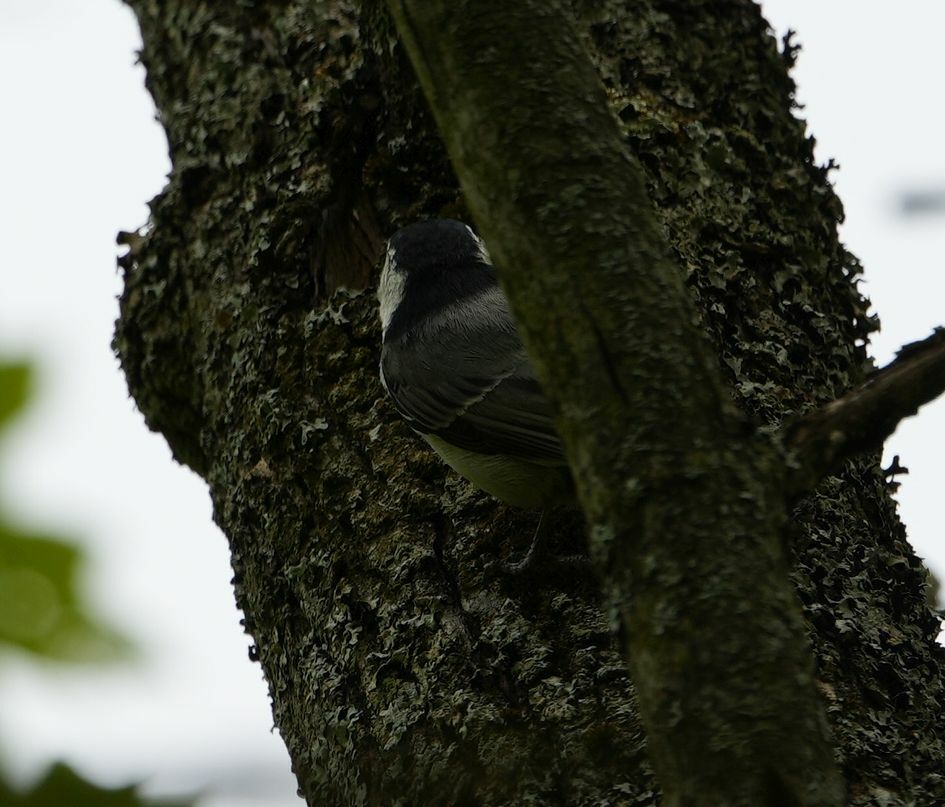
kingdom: Animalia
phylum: Chordata
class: Aves
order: Passeriformes
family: Sittidae
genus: Sitta
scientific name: Sitta carolinensis
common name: White-breasted nuthatch
